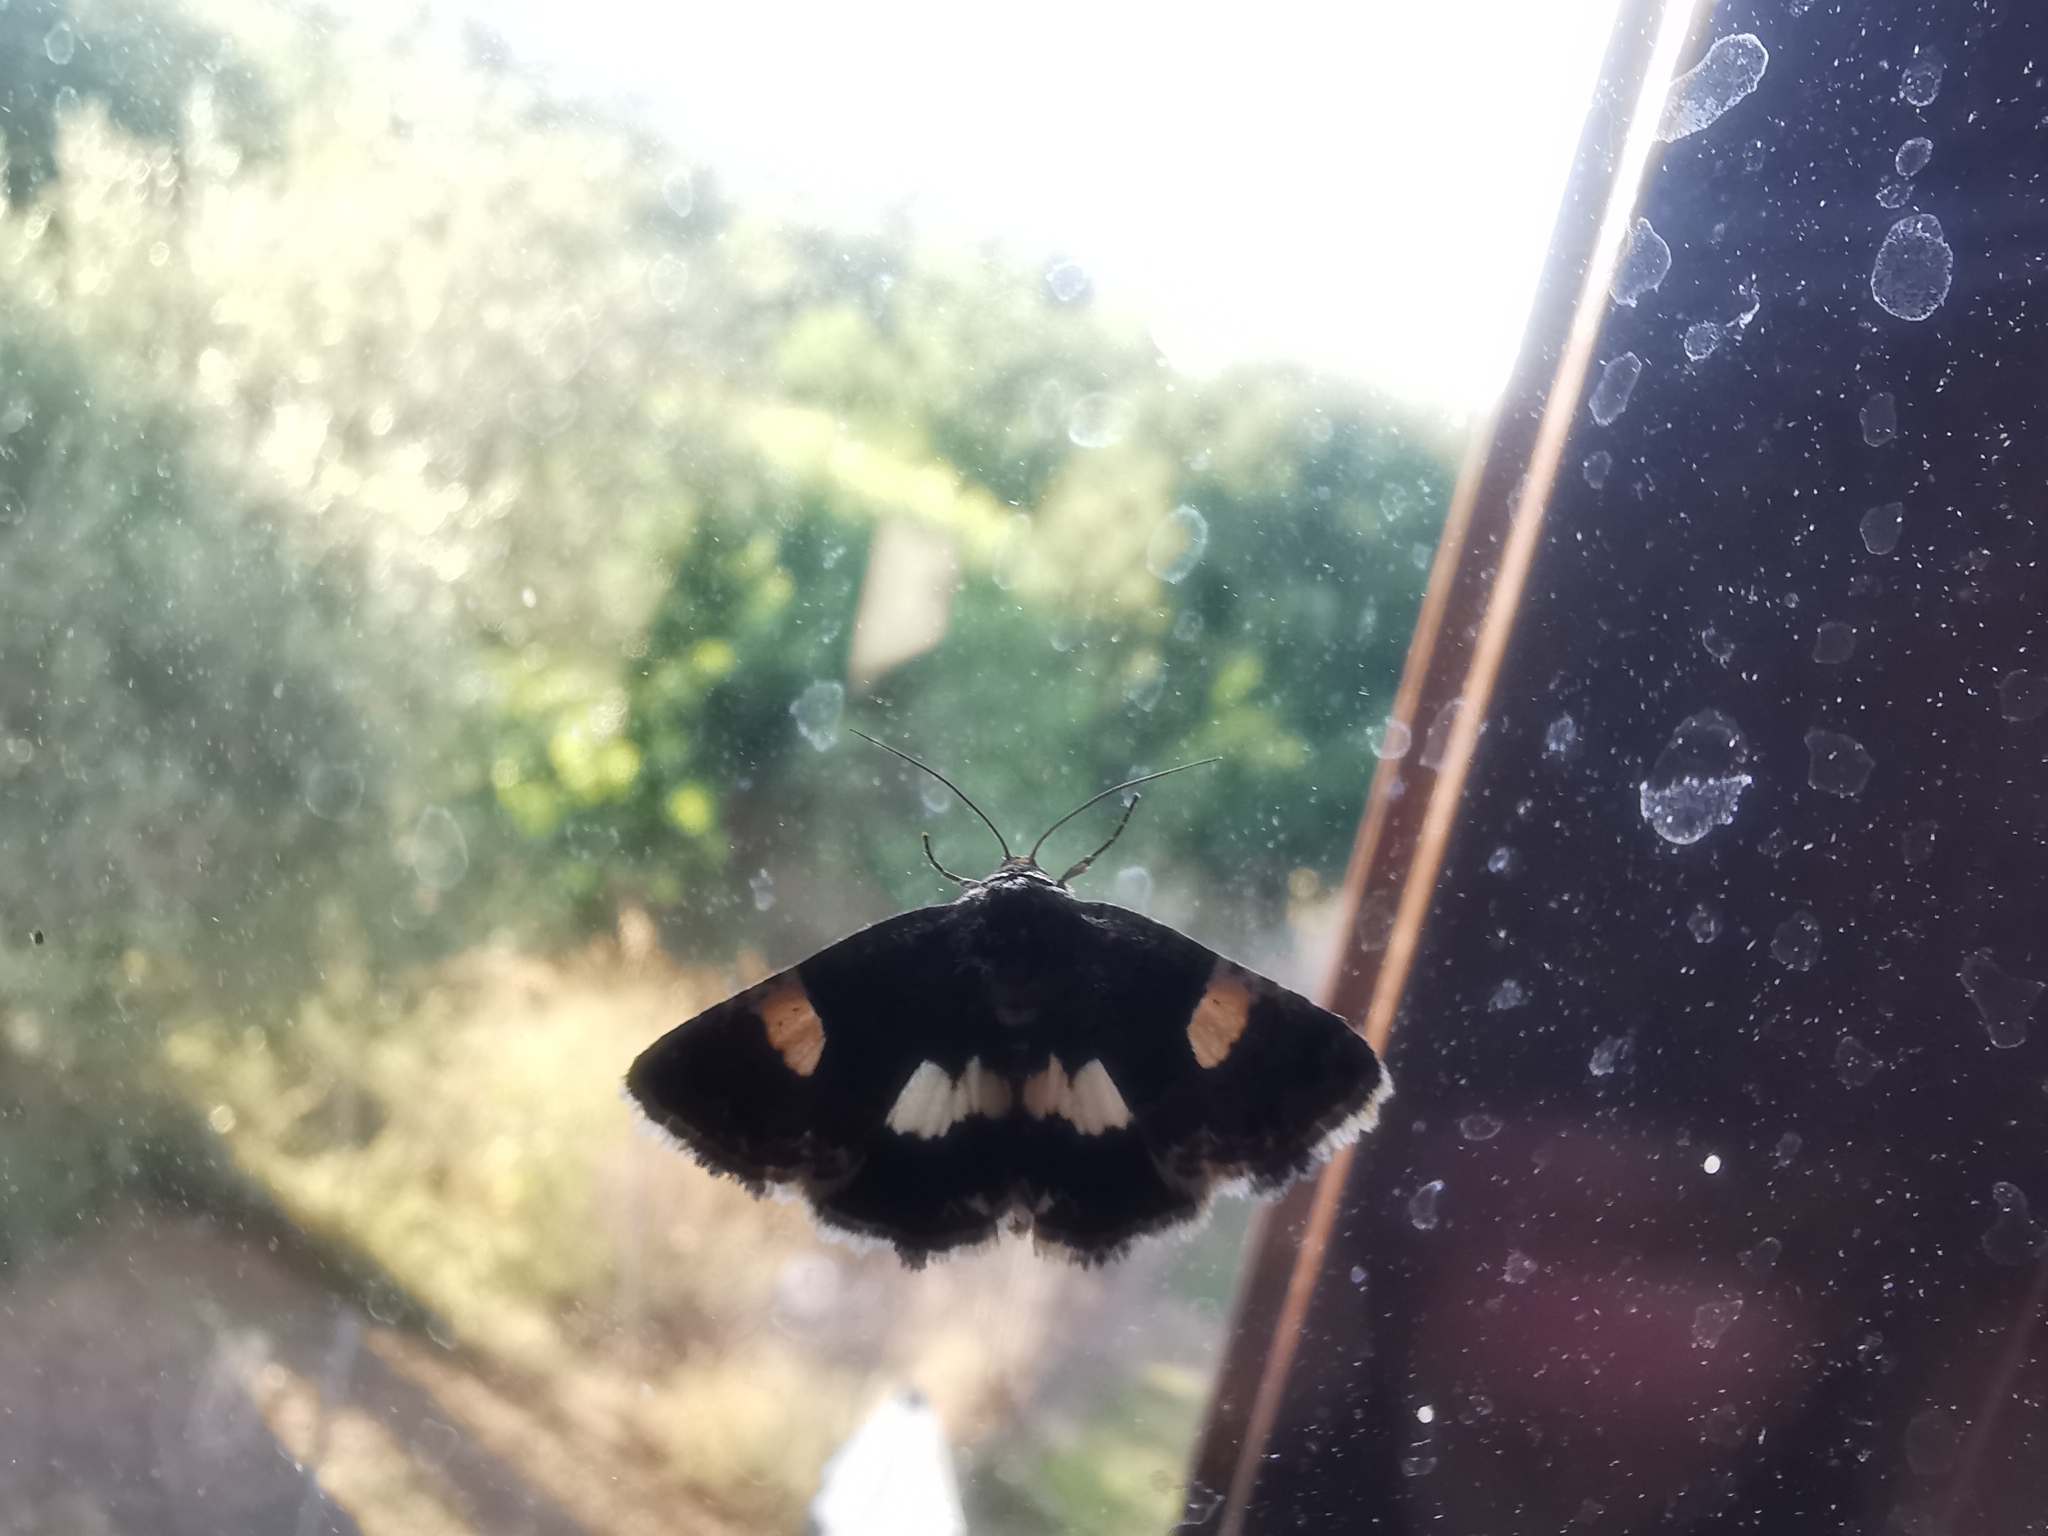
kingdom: Animalia
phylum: Arthropoda
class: Insecta
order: Lepidoptera
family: Erebidae
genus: Tyta
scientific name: Tyta luctuosa
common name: Four-spotted
